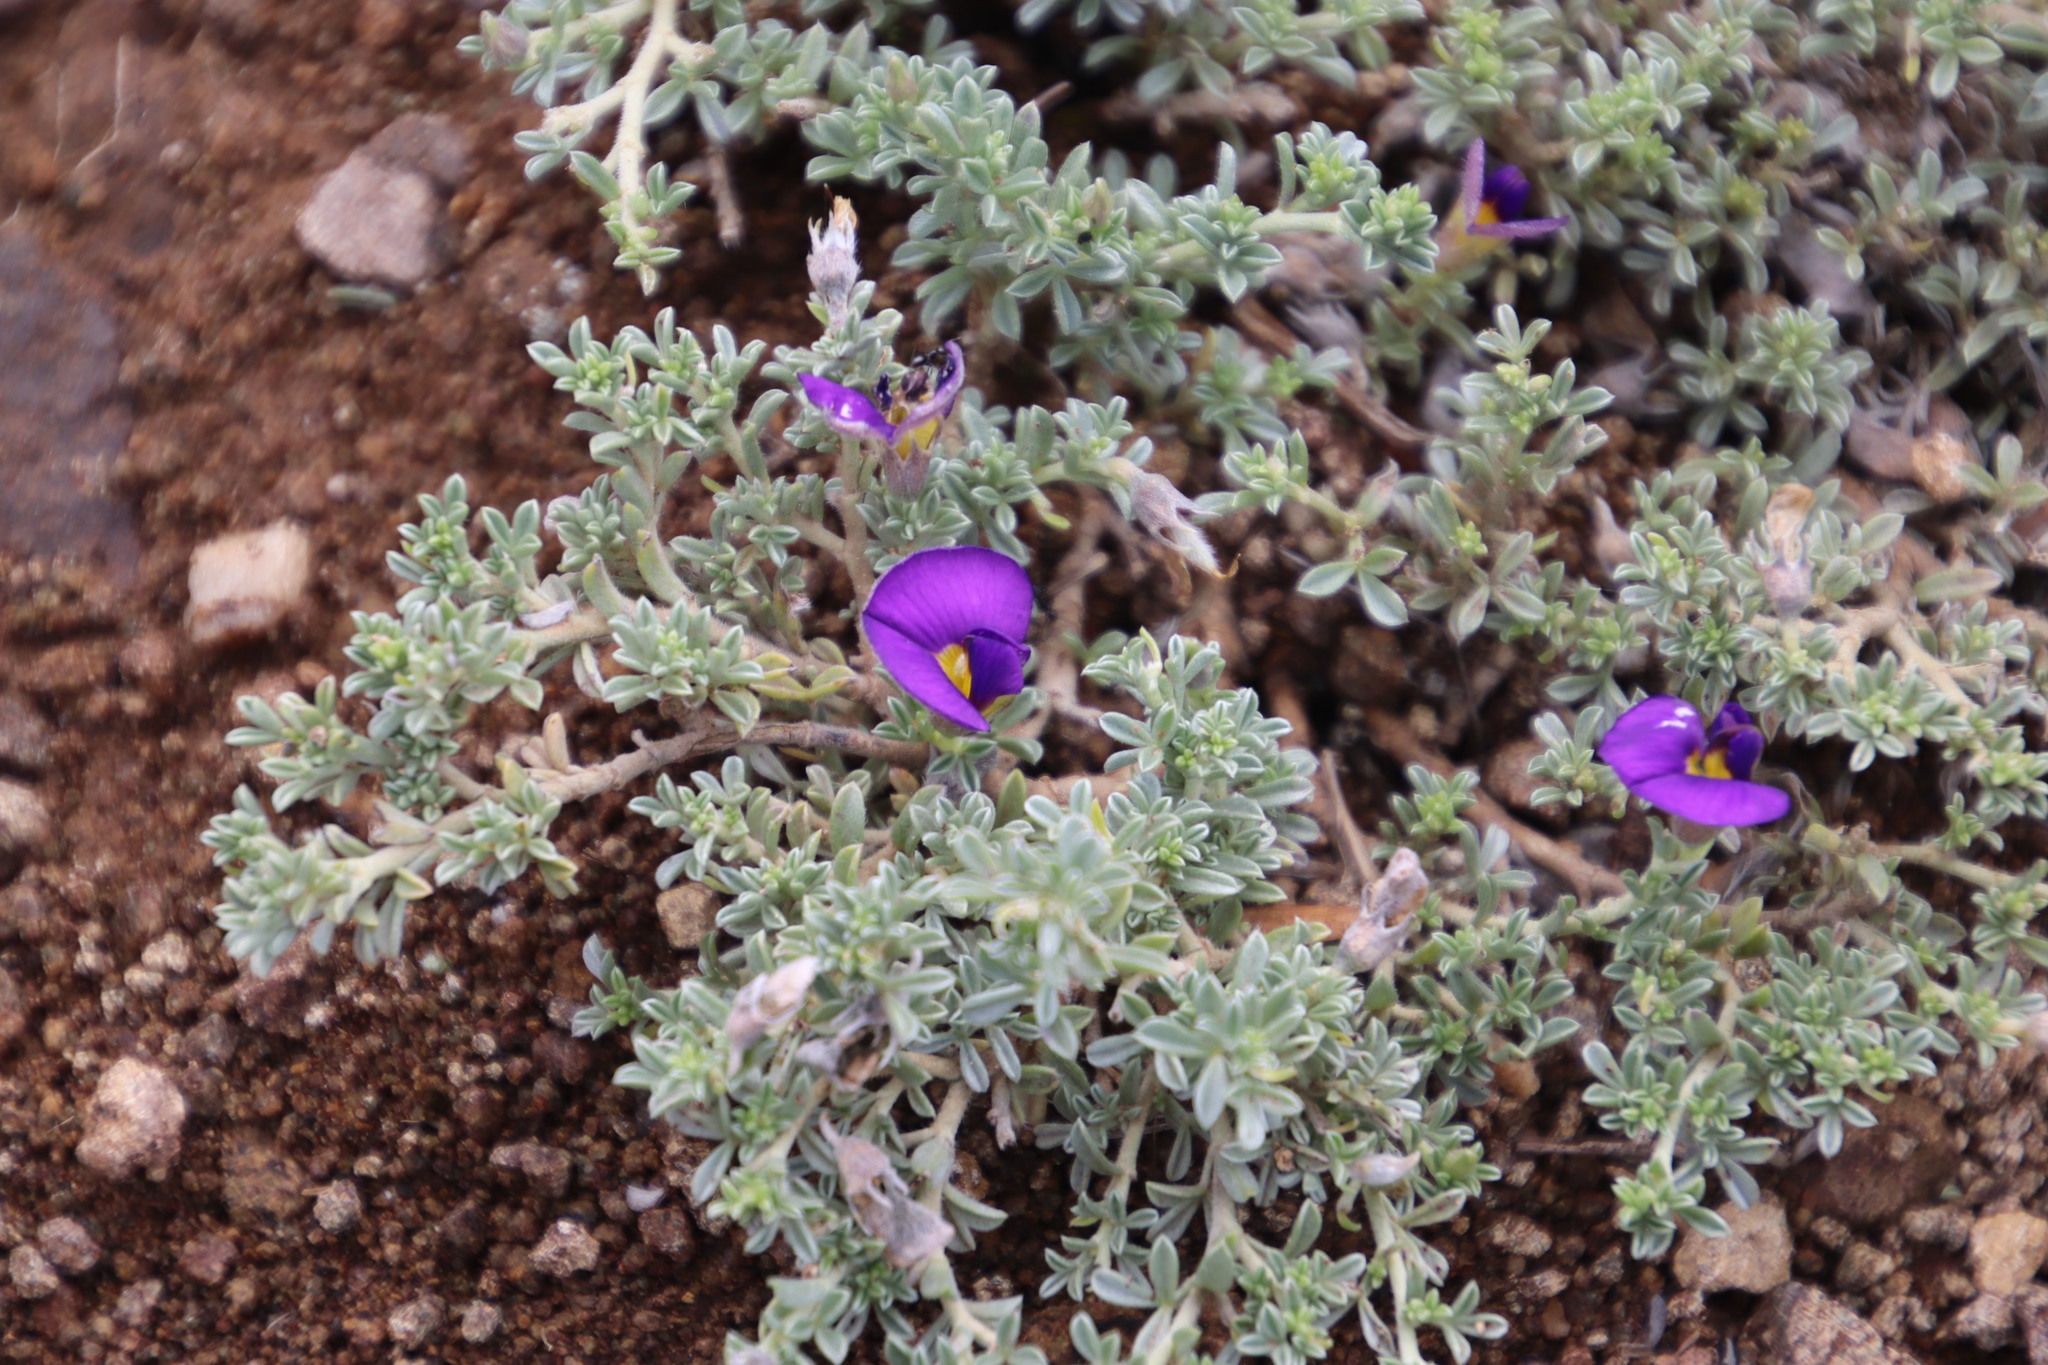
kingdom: Plantae
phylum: Tracheophyta
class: Magnoliopsida
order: Fabales
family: Fabaceae
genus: Lotononis
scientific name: Lotononis galpinii
